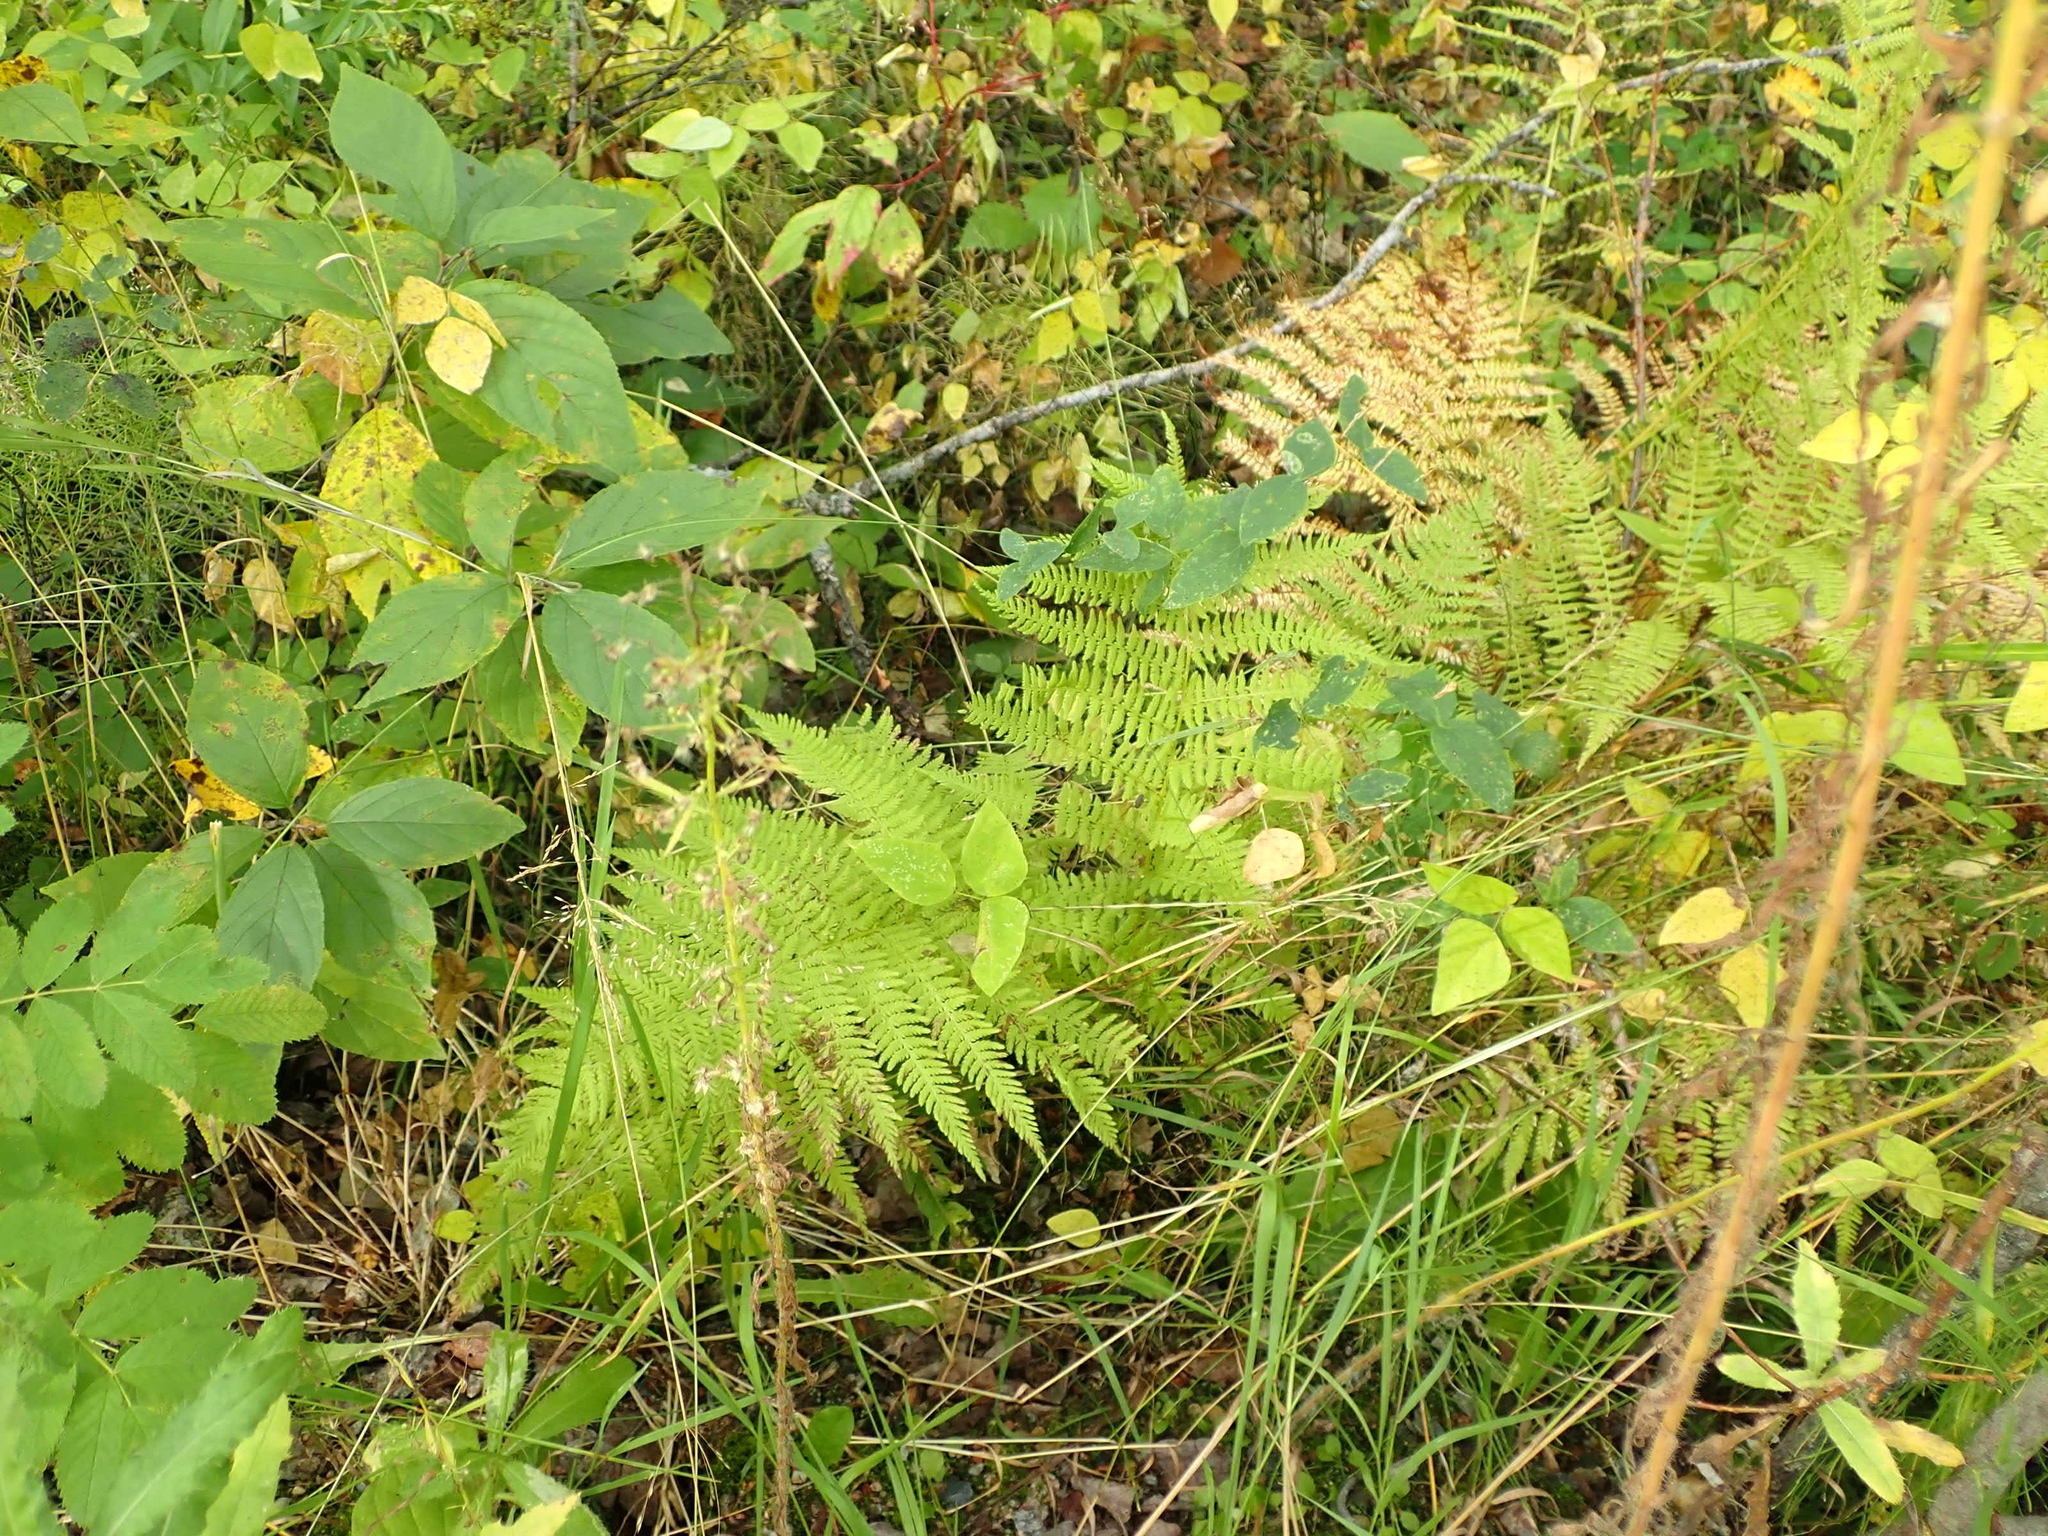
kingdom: Plantae
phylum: Tracheophyta
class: Polypodiopsida
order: Polypodiales
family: Athyriaceae
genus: Athyrium
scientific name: Athyrium angustum
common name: Northern lady fern
